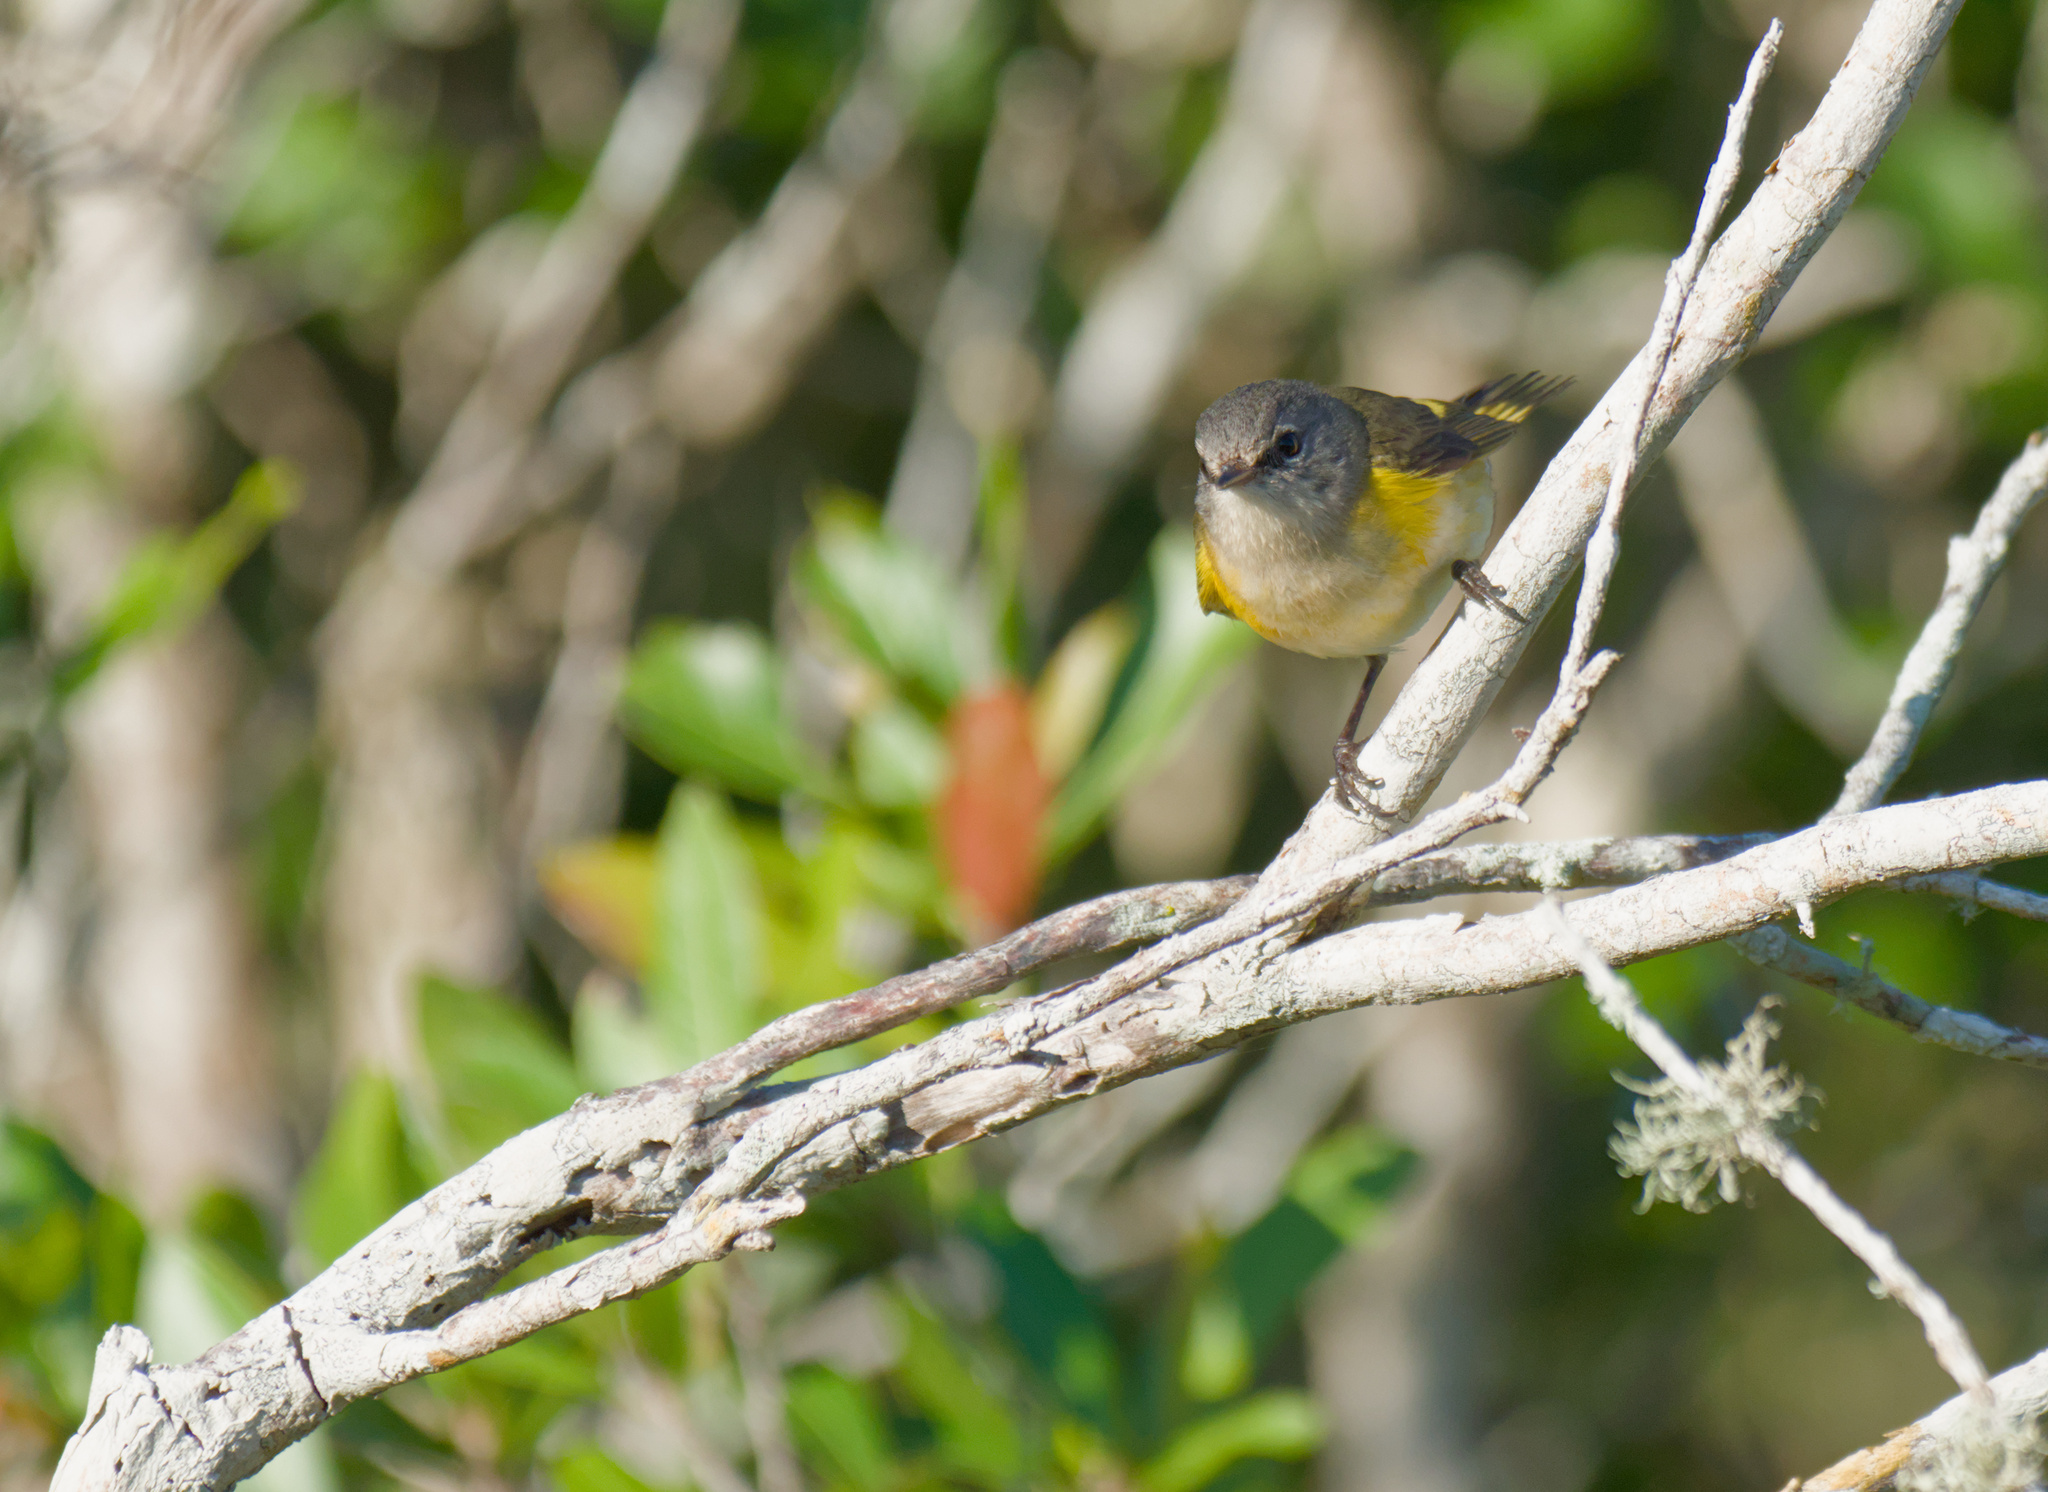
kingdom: Animalia
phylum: Chordata
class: Aves
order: Passeriformes
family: Parulidae
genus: Setophaga
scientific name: Setophaga ruticilla
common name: American redstart
